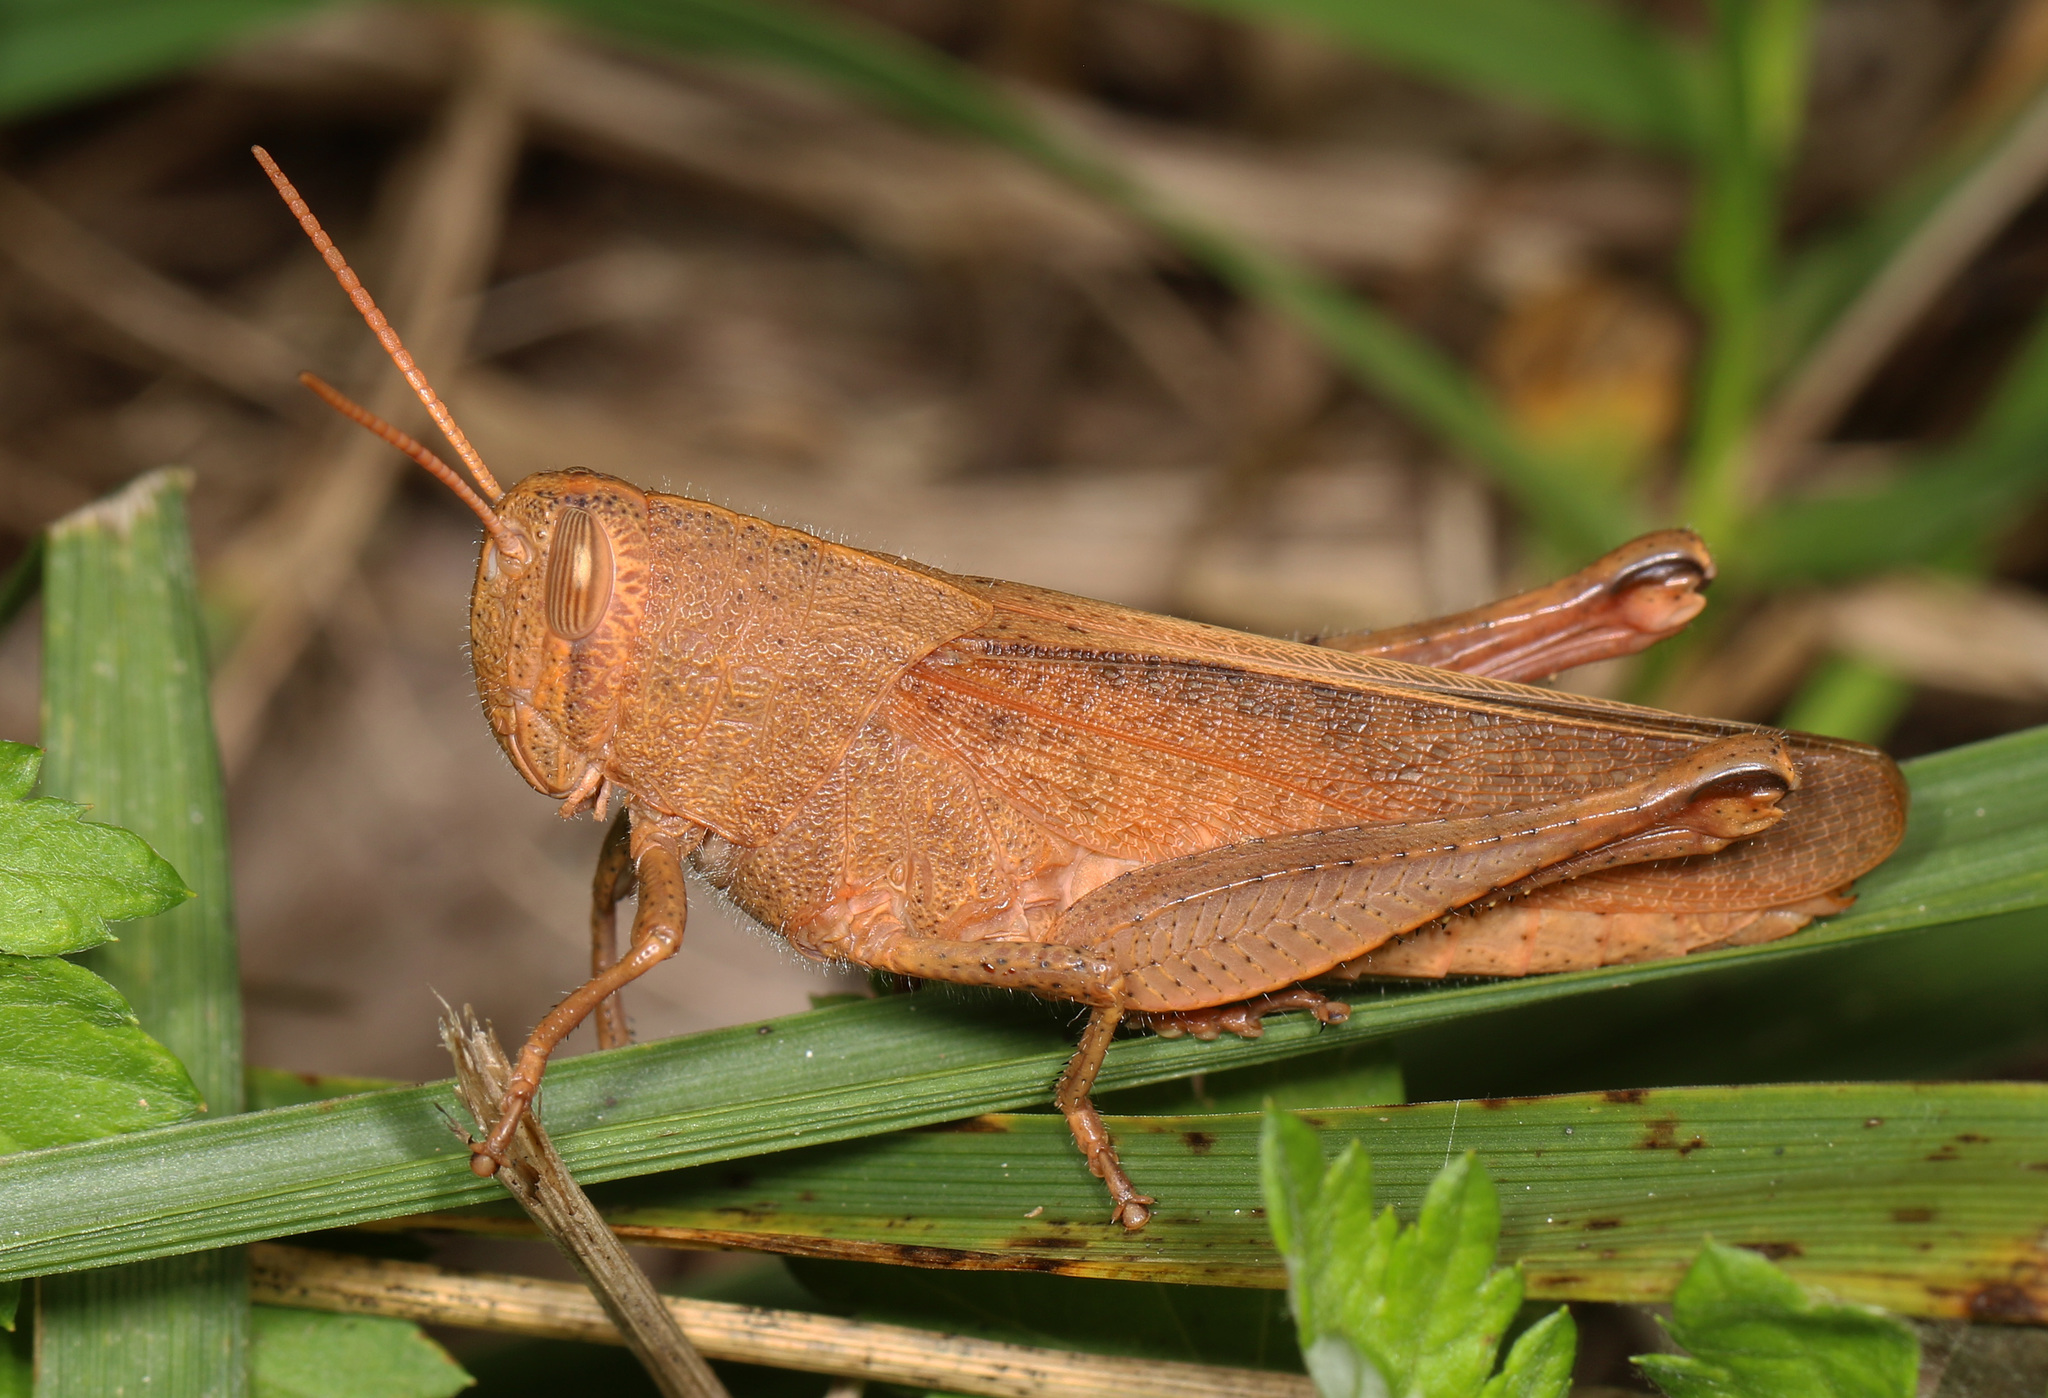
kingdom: Animalia
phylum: Arthropoda
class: Insecta
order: Orthoptera
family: Acrididae
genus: Schistocerca
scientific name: Schistocerca damnifica
